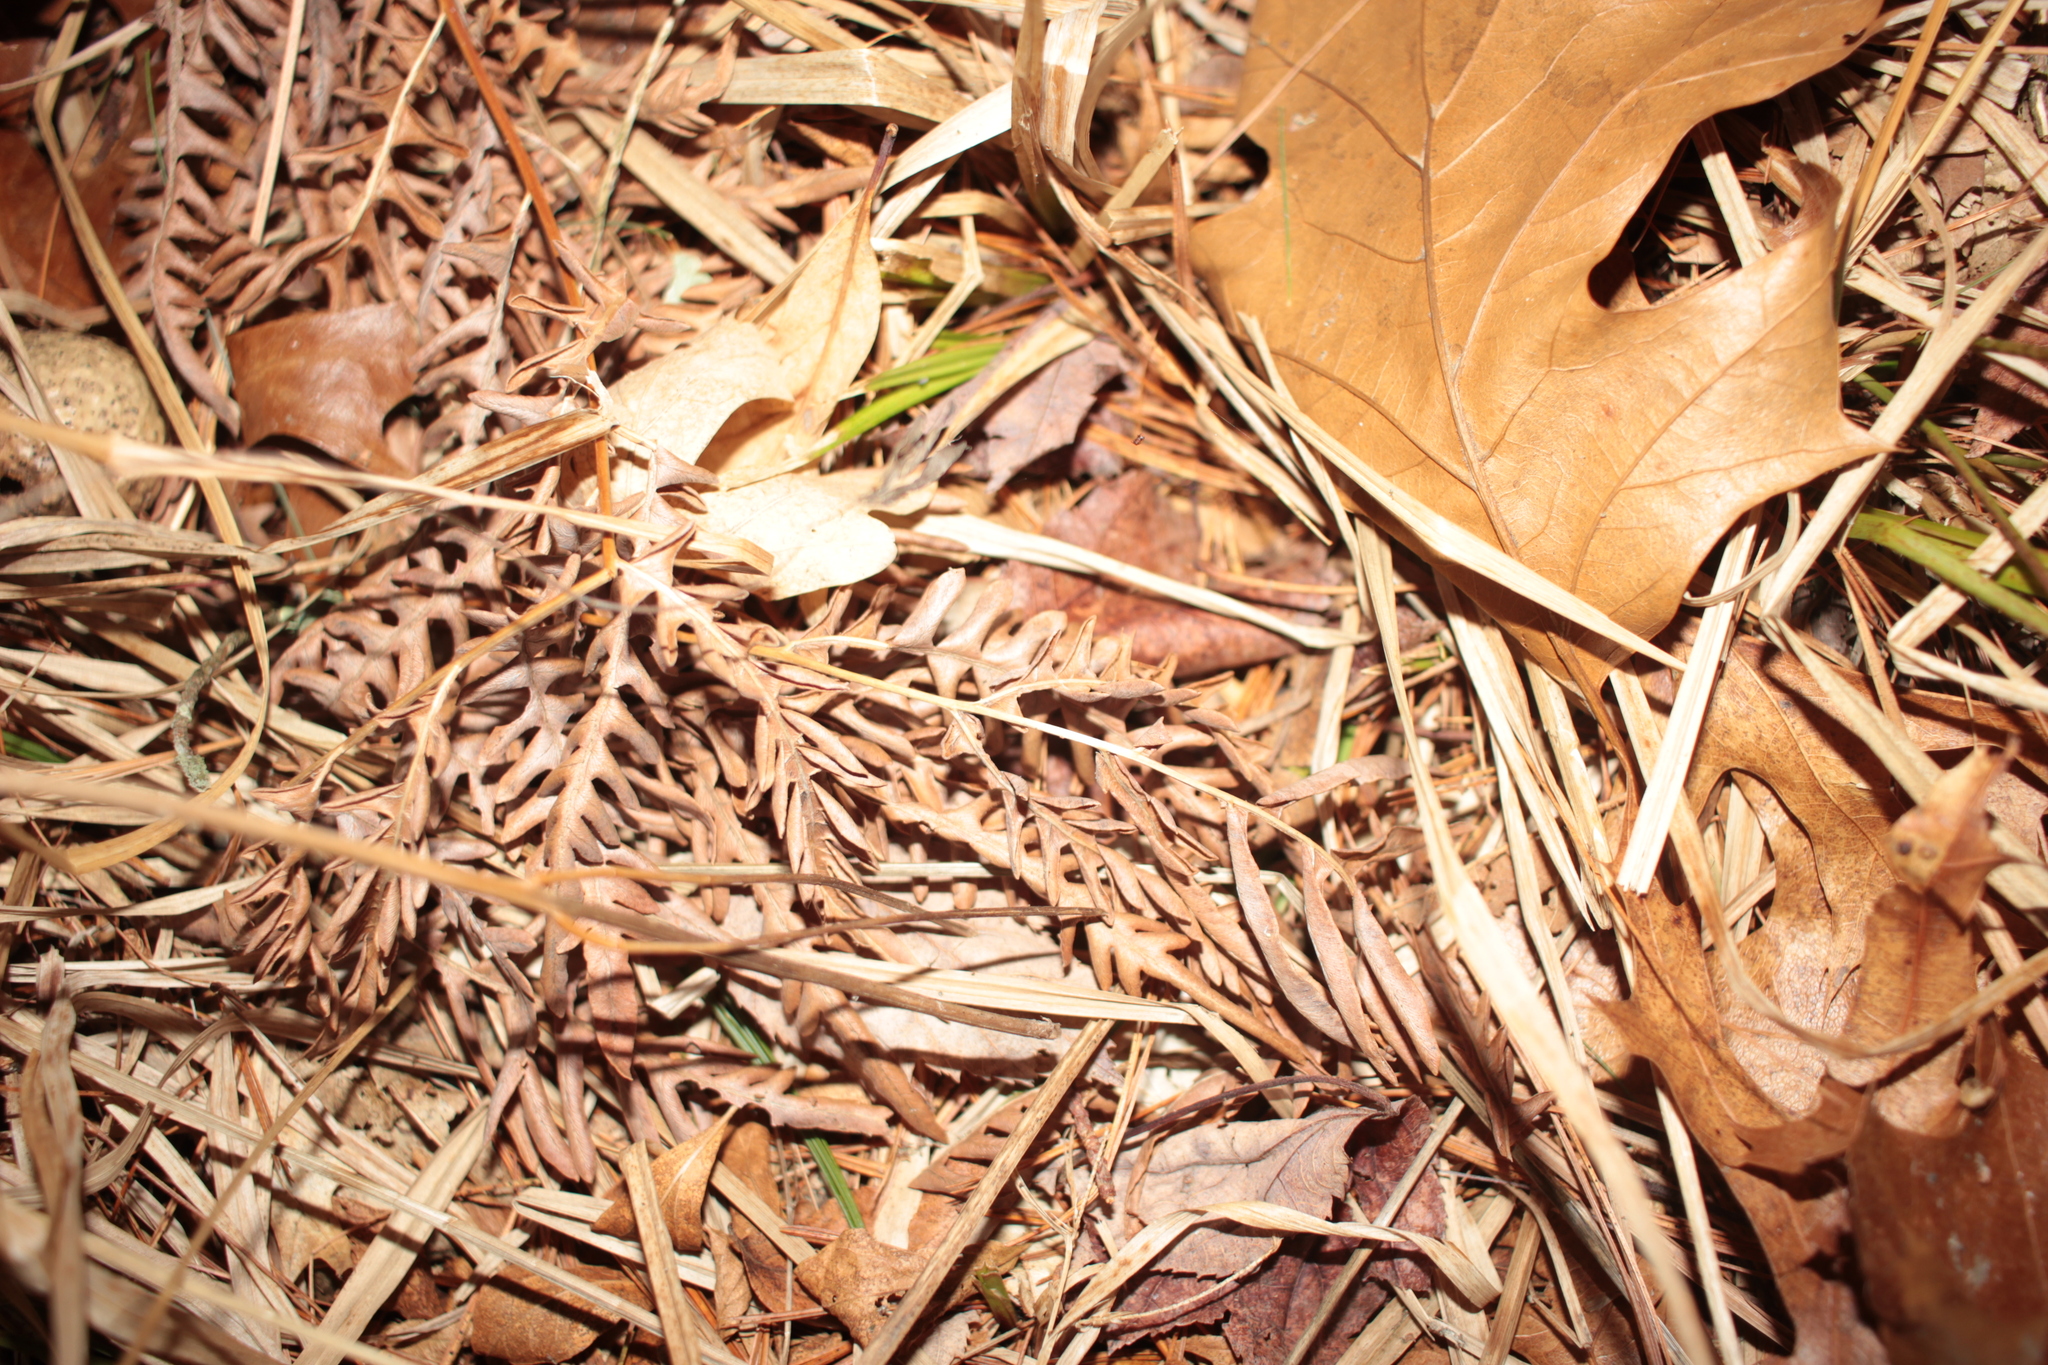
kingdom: Plantae
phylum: Tracheophyta
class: Polypodiopsida
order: Polypodiales
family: Dennstaedtiaceae
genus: Pteridium
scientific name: Pteridium aquilinum
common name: Bracken
